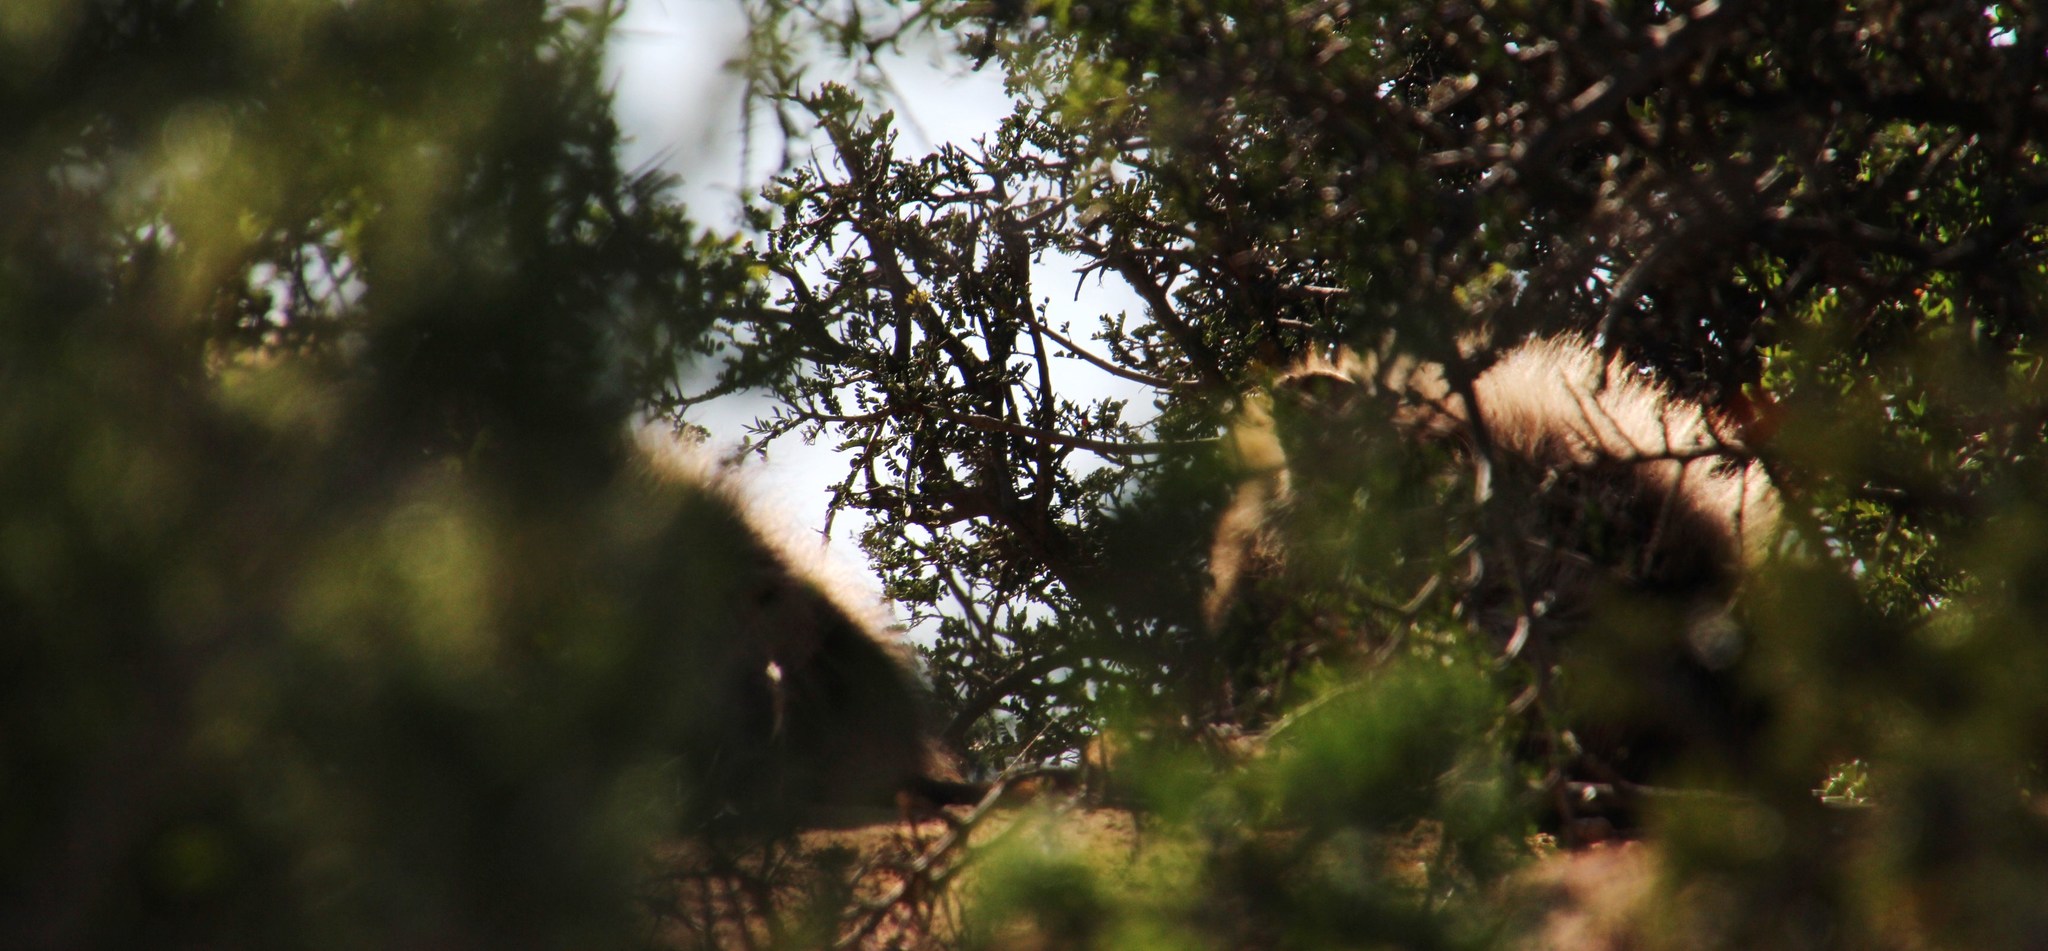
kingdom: Animalia
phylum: Chordata
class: Mammalia
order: Carnivora
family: Hyaenidae
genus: Crocuta
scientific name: Crocuta crocuta
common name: Spotted hyaena
